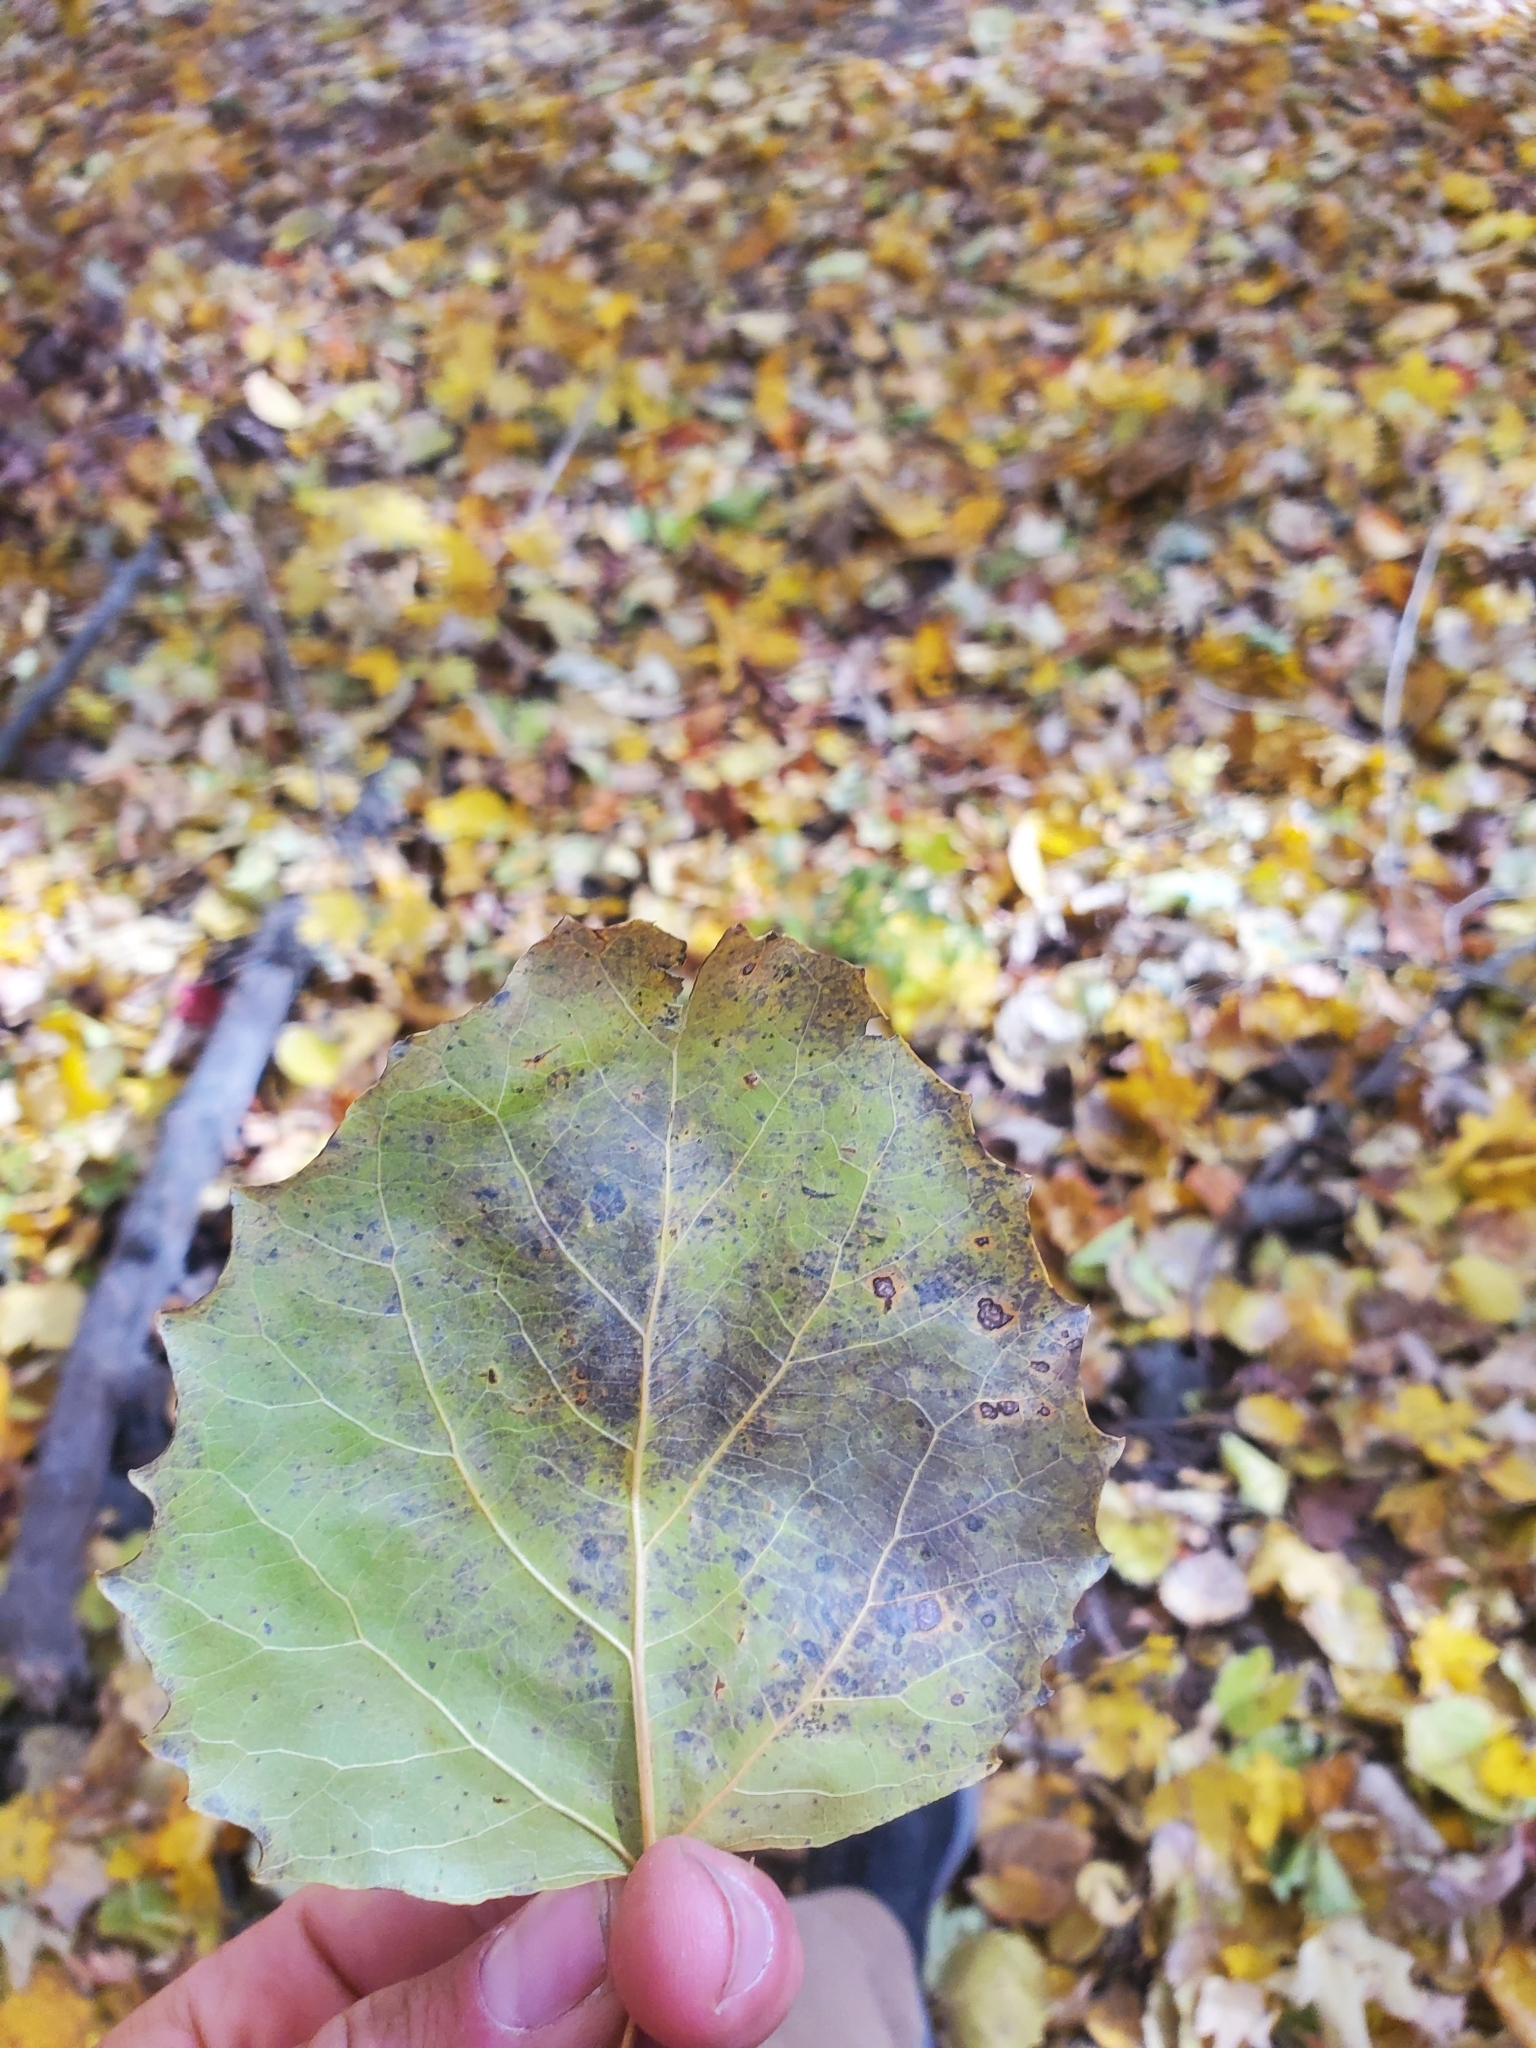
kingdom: Plantae
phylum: Tracheophyta
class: Magnoliopsida
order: Malpighiales
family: Salicaceae
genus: Populus
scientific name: Populus grandidentata
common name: Bigtooth aspen
